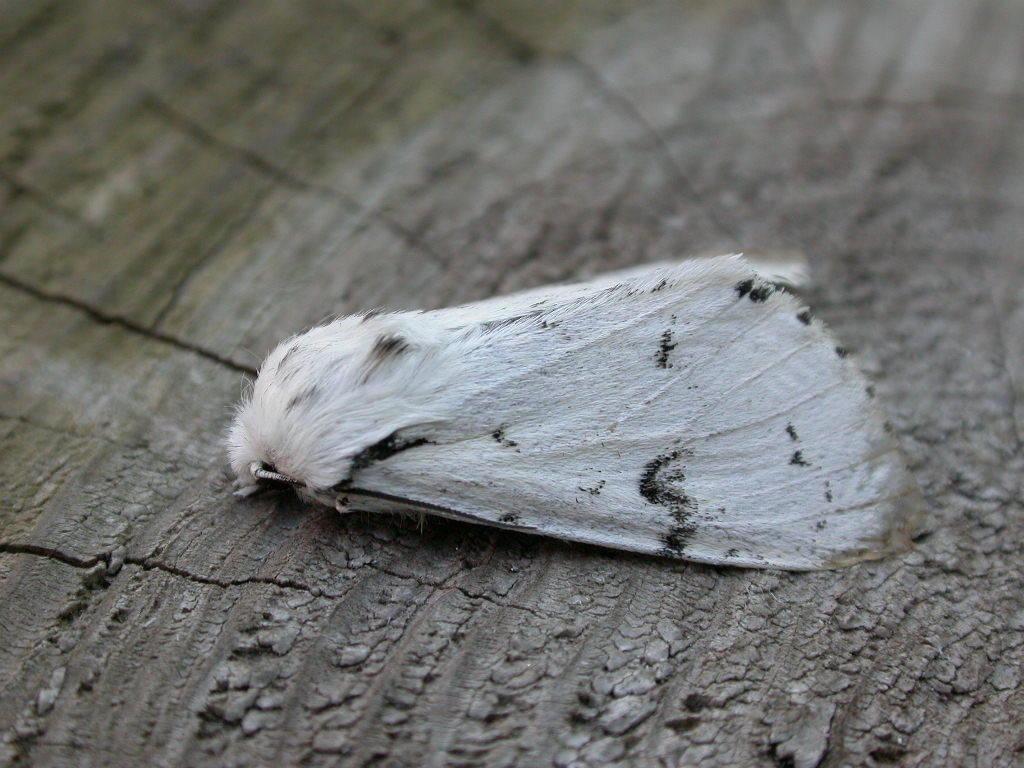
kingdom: Animalia
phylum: Arthropoda
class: Insecta
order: Lepidoptera
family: Noctuidae
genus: Acronicta
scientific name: Acronicta leporina
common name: Miller
